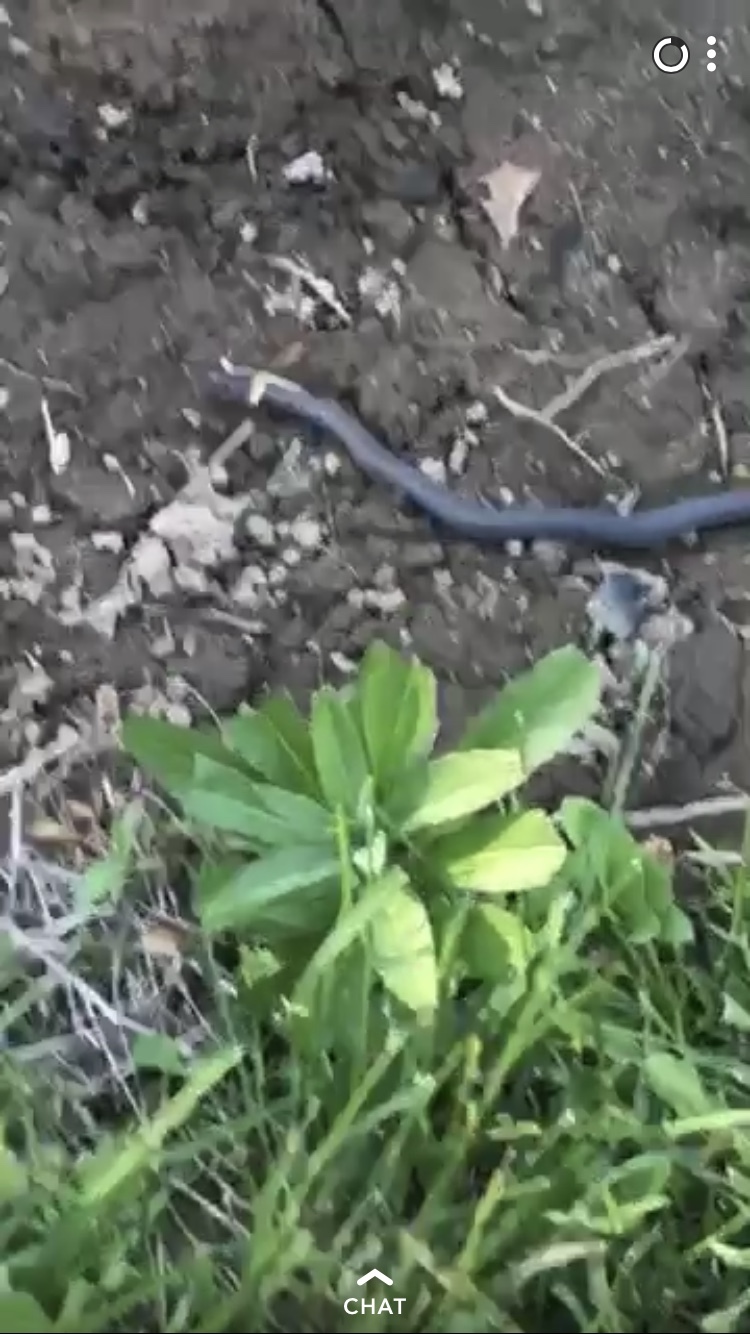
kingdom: Animalia
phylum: Chordata
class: Squamata
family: Colubridae
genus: Diadophis
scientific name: Diadophis punctatus
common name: Ringneck snake
